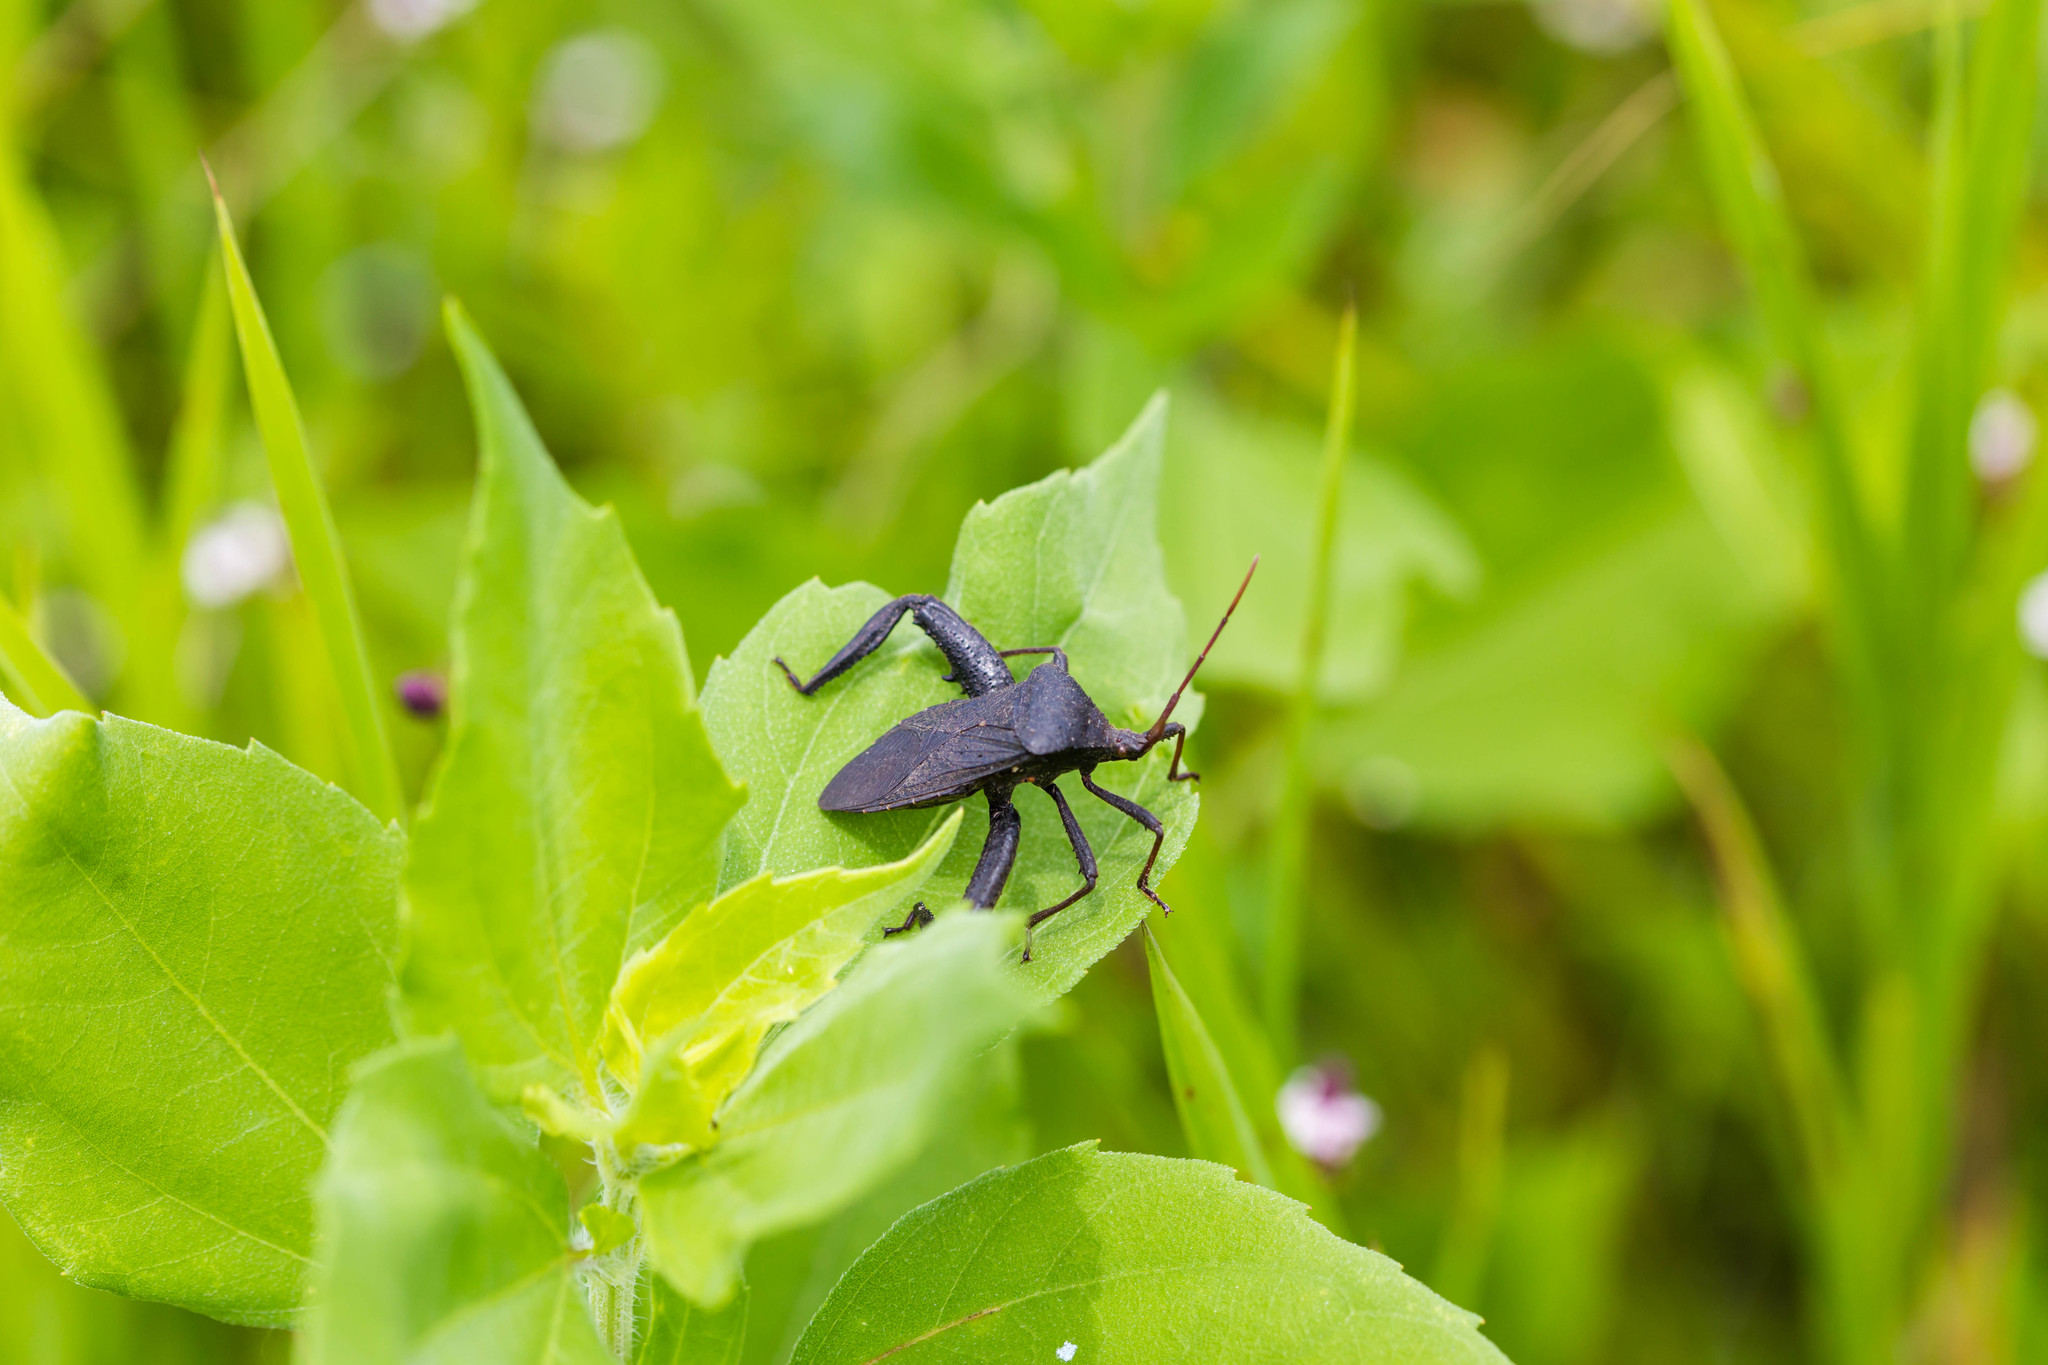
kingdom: Animalia
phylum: Arthropoda
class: Insecta
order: Hemiptera
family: Coreidae
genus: Acanthocephala
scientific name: Acanthocephala femorata
